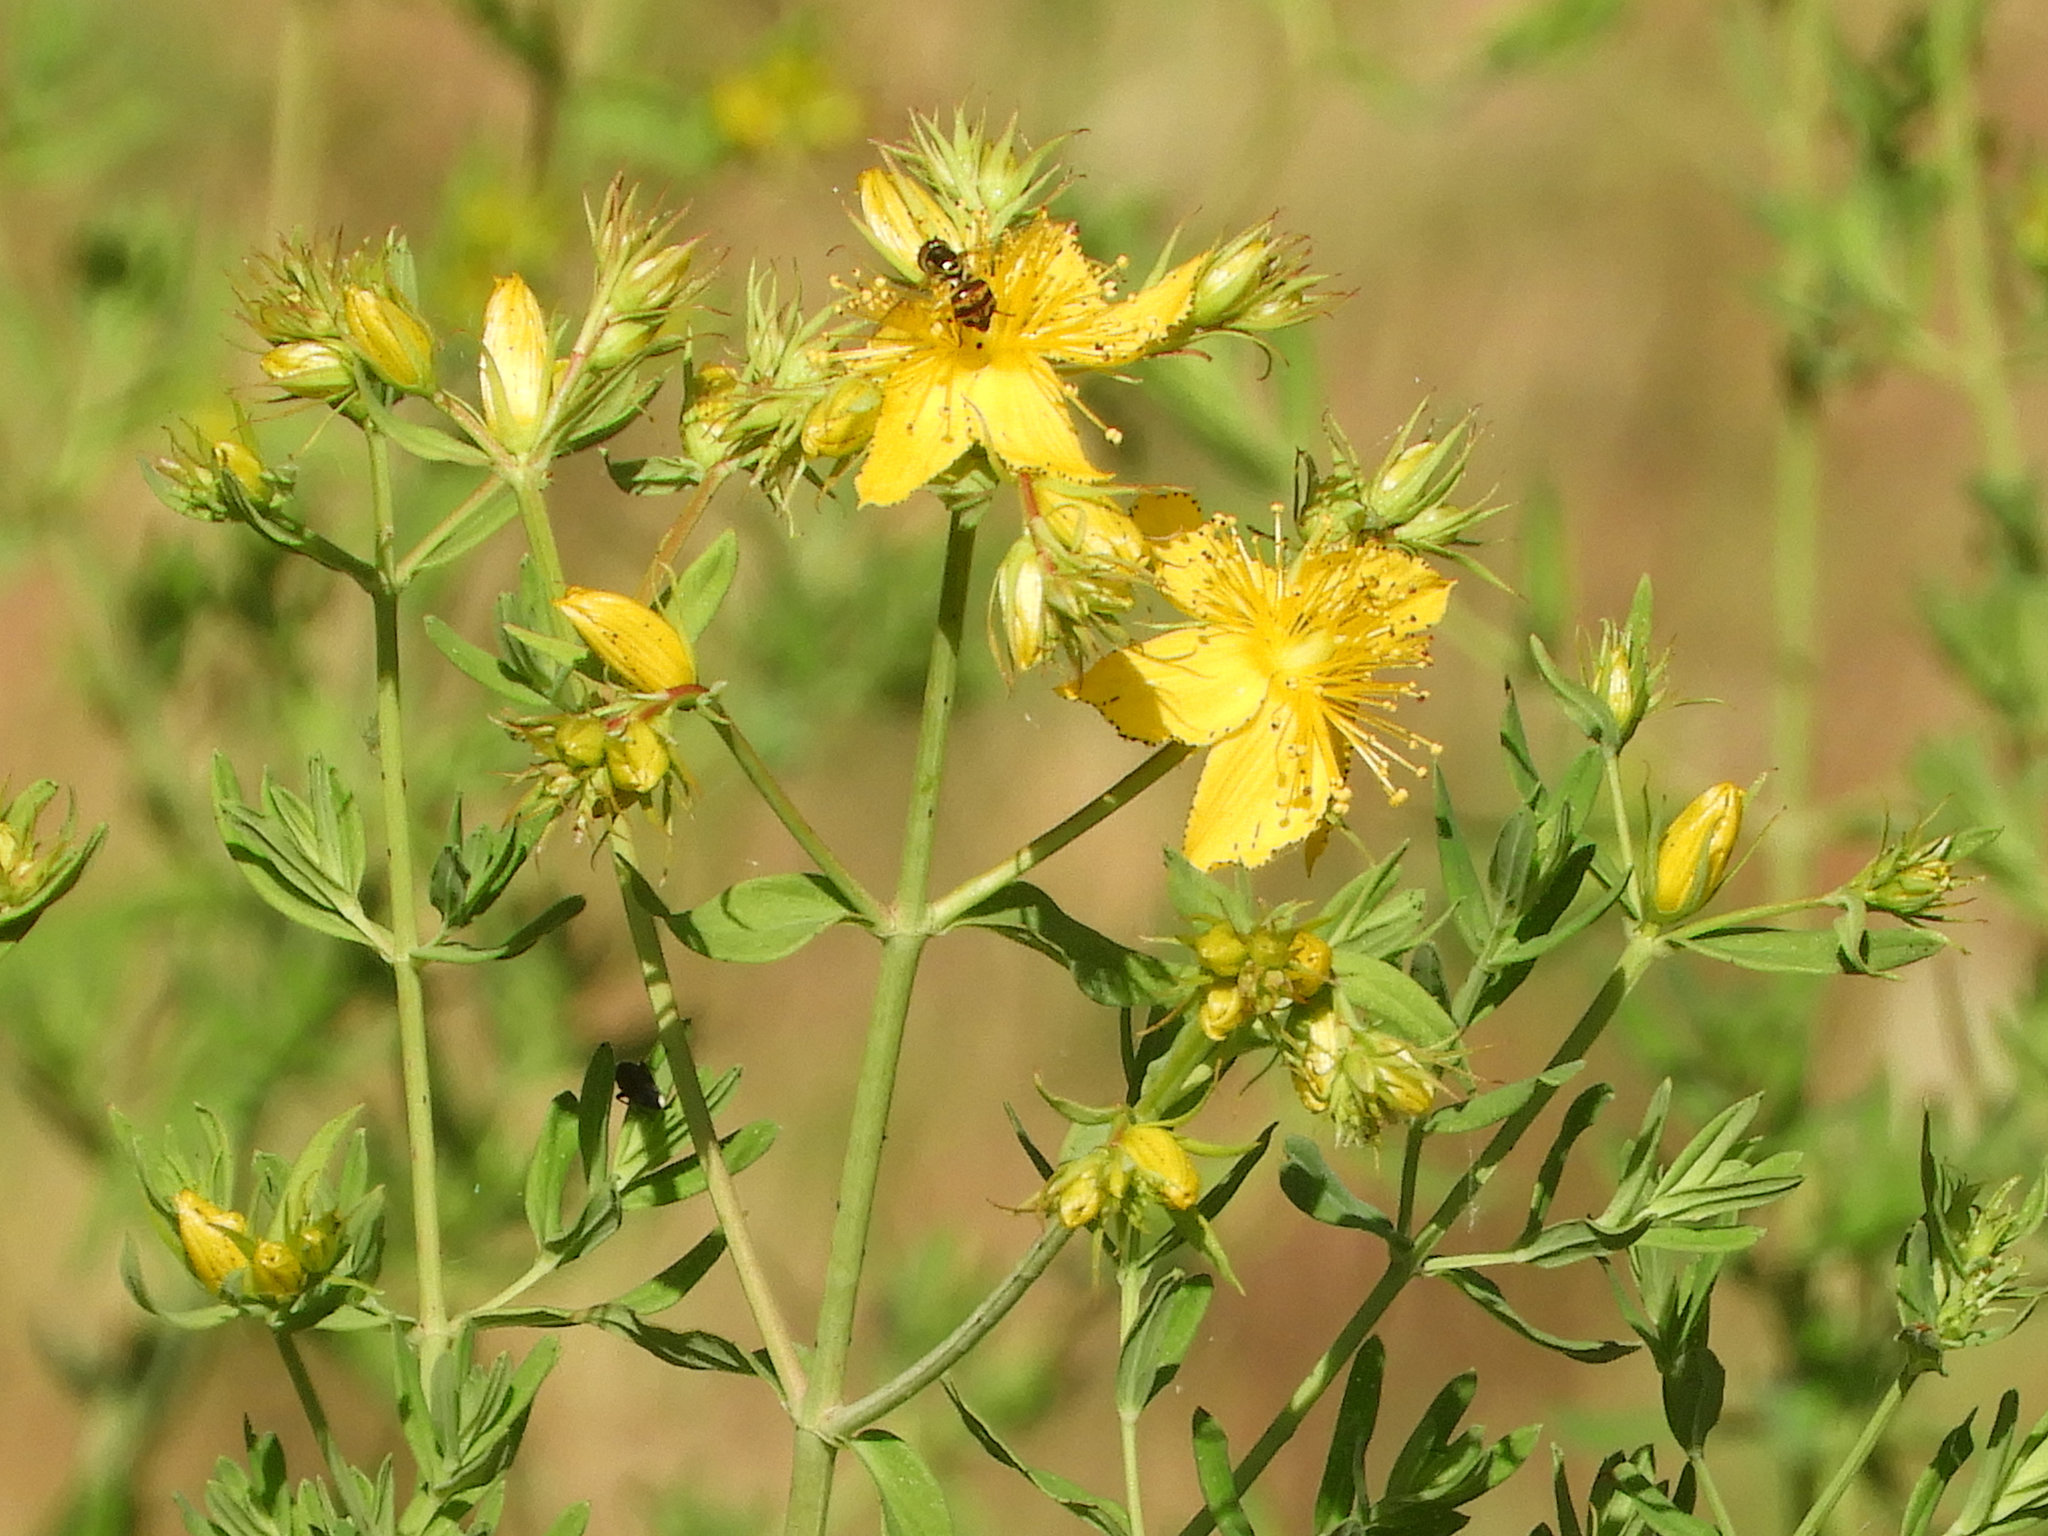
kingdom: Plantae
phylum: Tracheophyta
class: Magnoliopsida
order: Malpighiales
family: Hypericaceae
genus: Hypericum
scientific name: Hypericum perforatum
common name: Common st. johnswort
